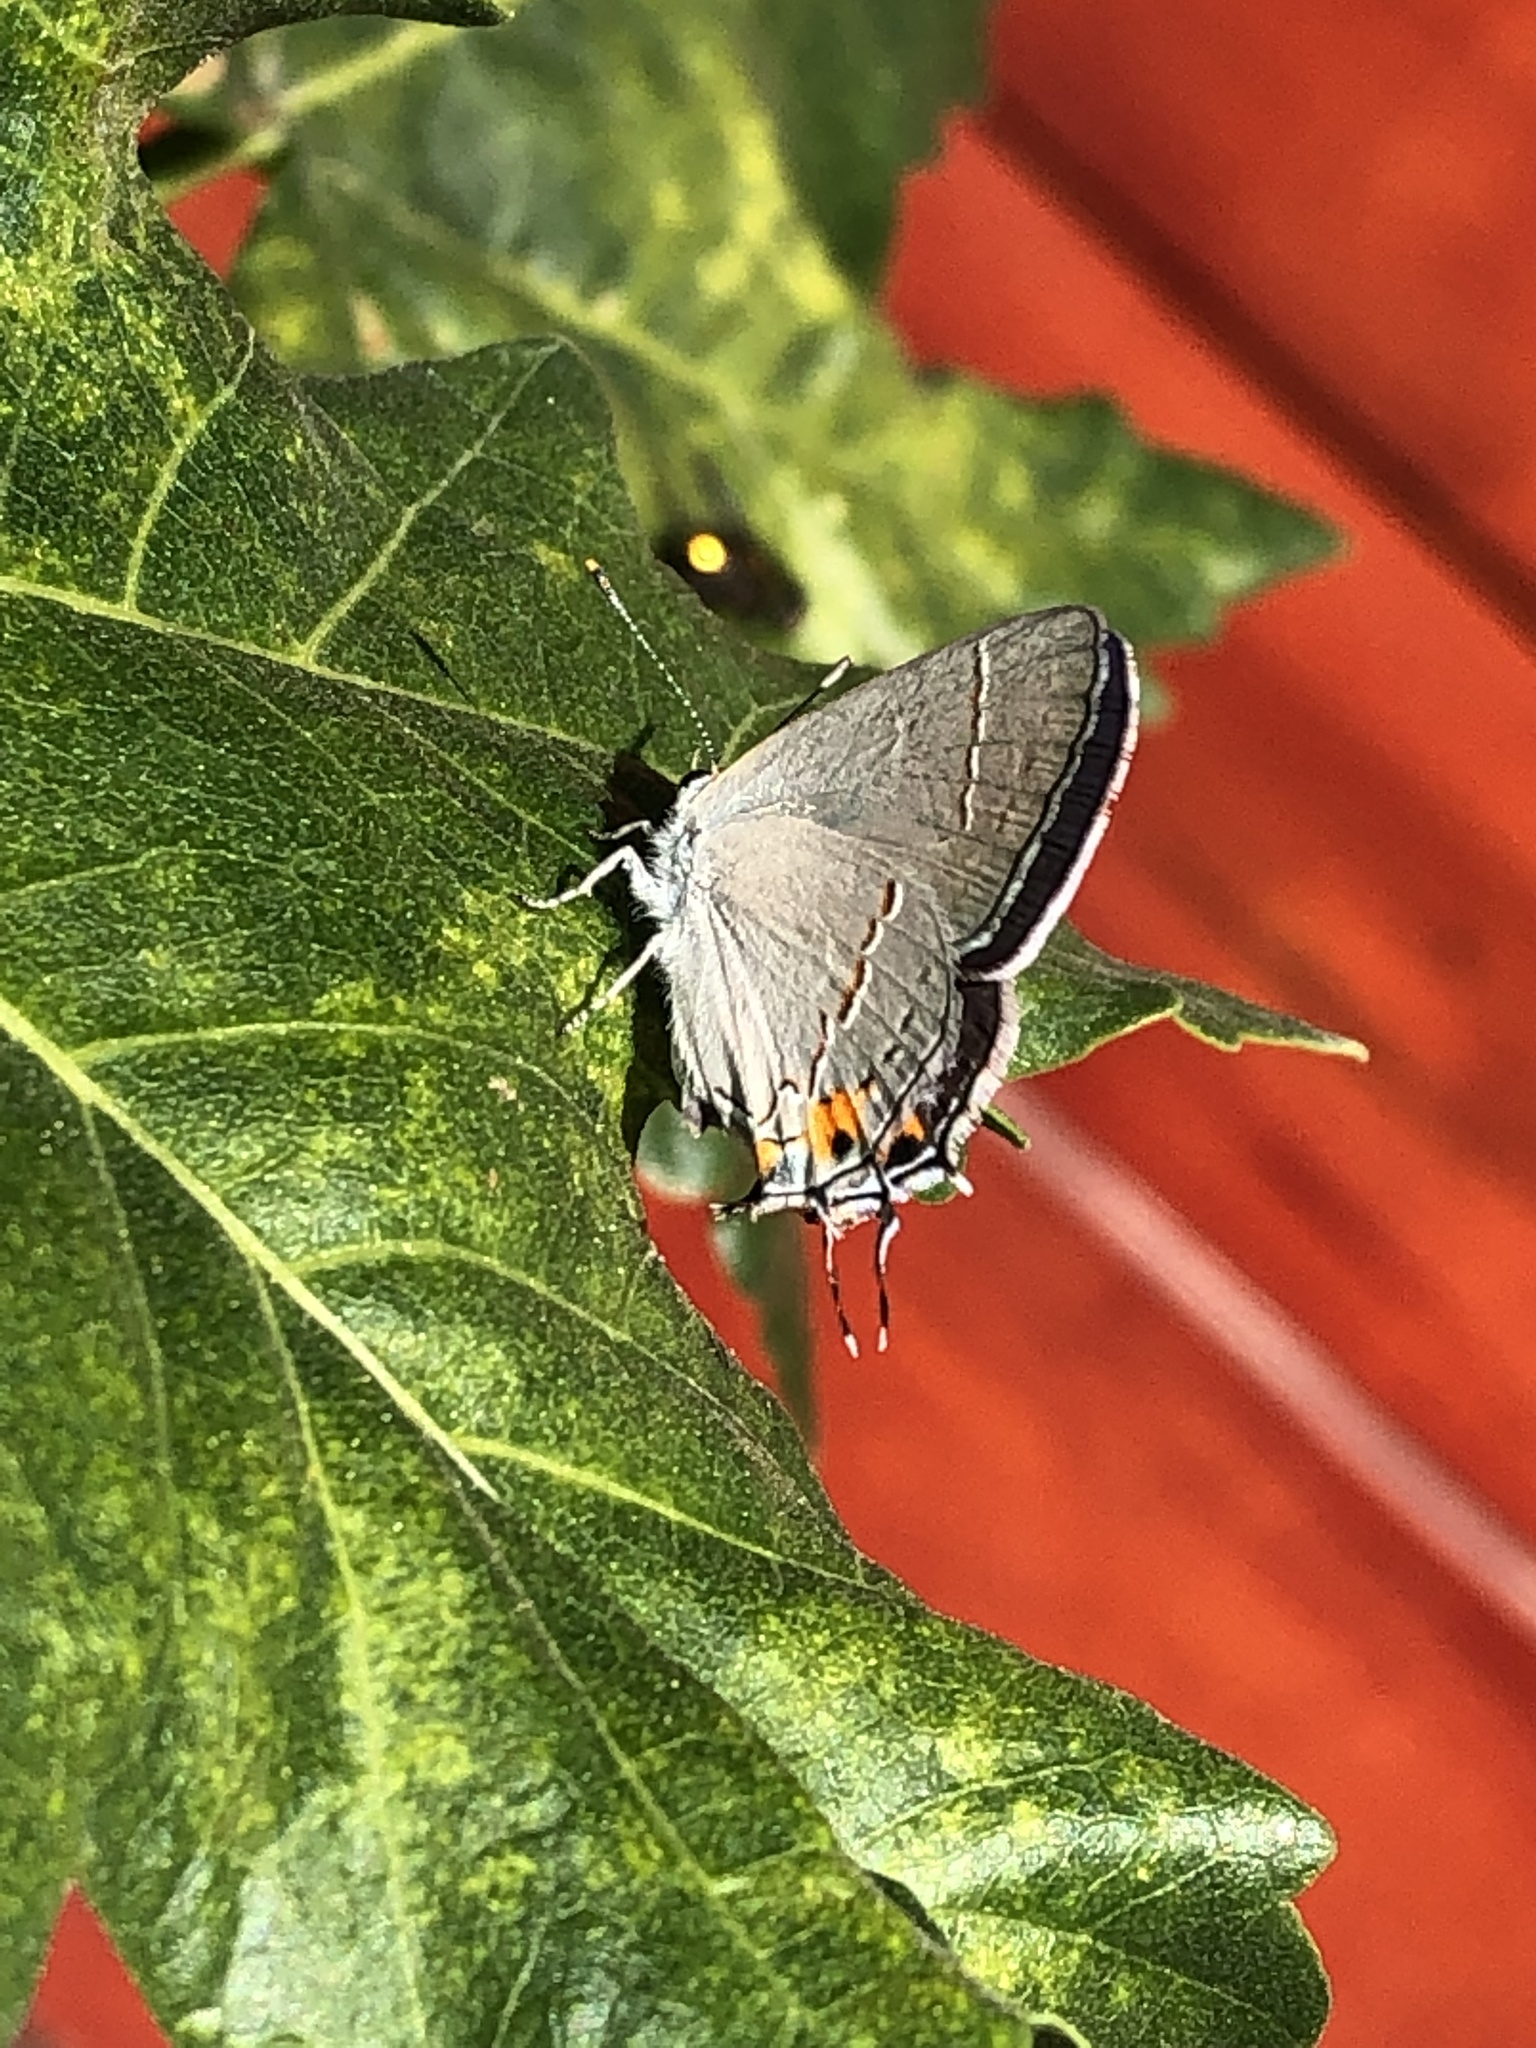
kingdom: Animalia
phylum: Arthropoda
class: Insecta
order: Lepidoptera
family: Lycaenidae
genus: Strymon
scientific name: Strymon melinus
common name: Gray hairstreak
